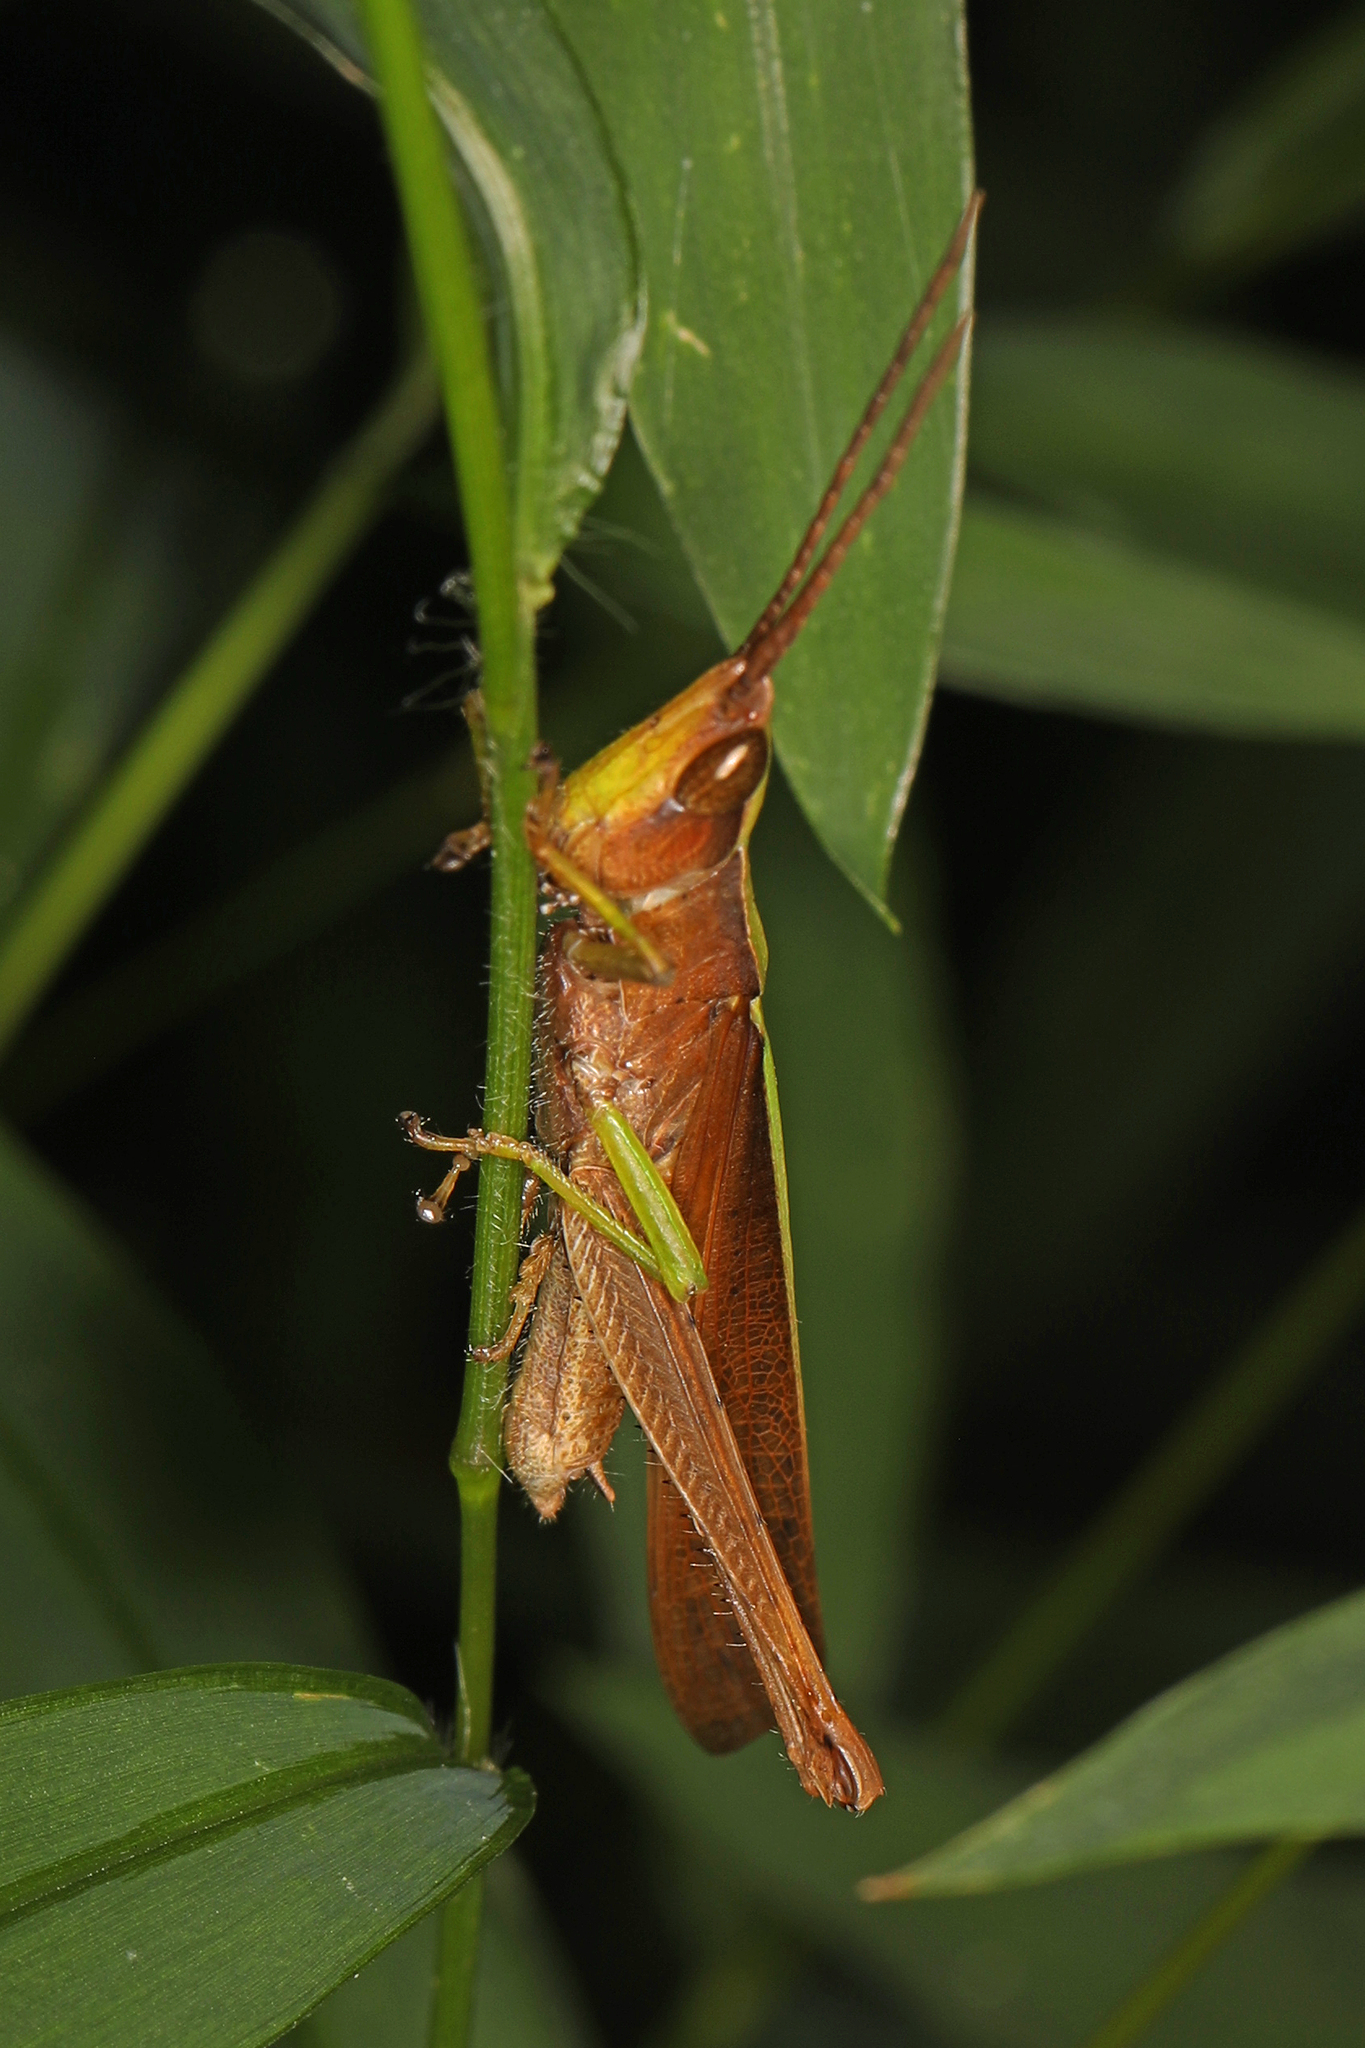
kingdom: Animalia
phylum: Arthropoda
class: Insecta
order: Orthoptera
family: Acrididae
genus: Metaleptea
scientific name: Metaleptea brevicornis
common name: Clipped-wing grasshopper
